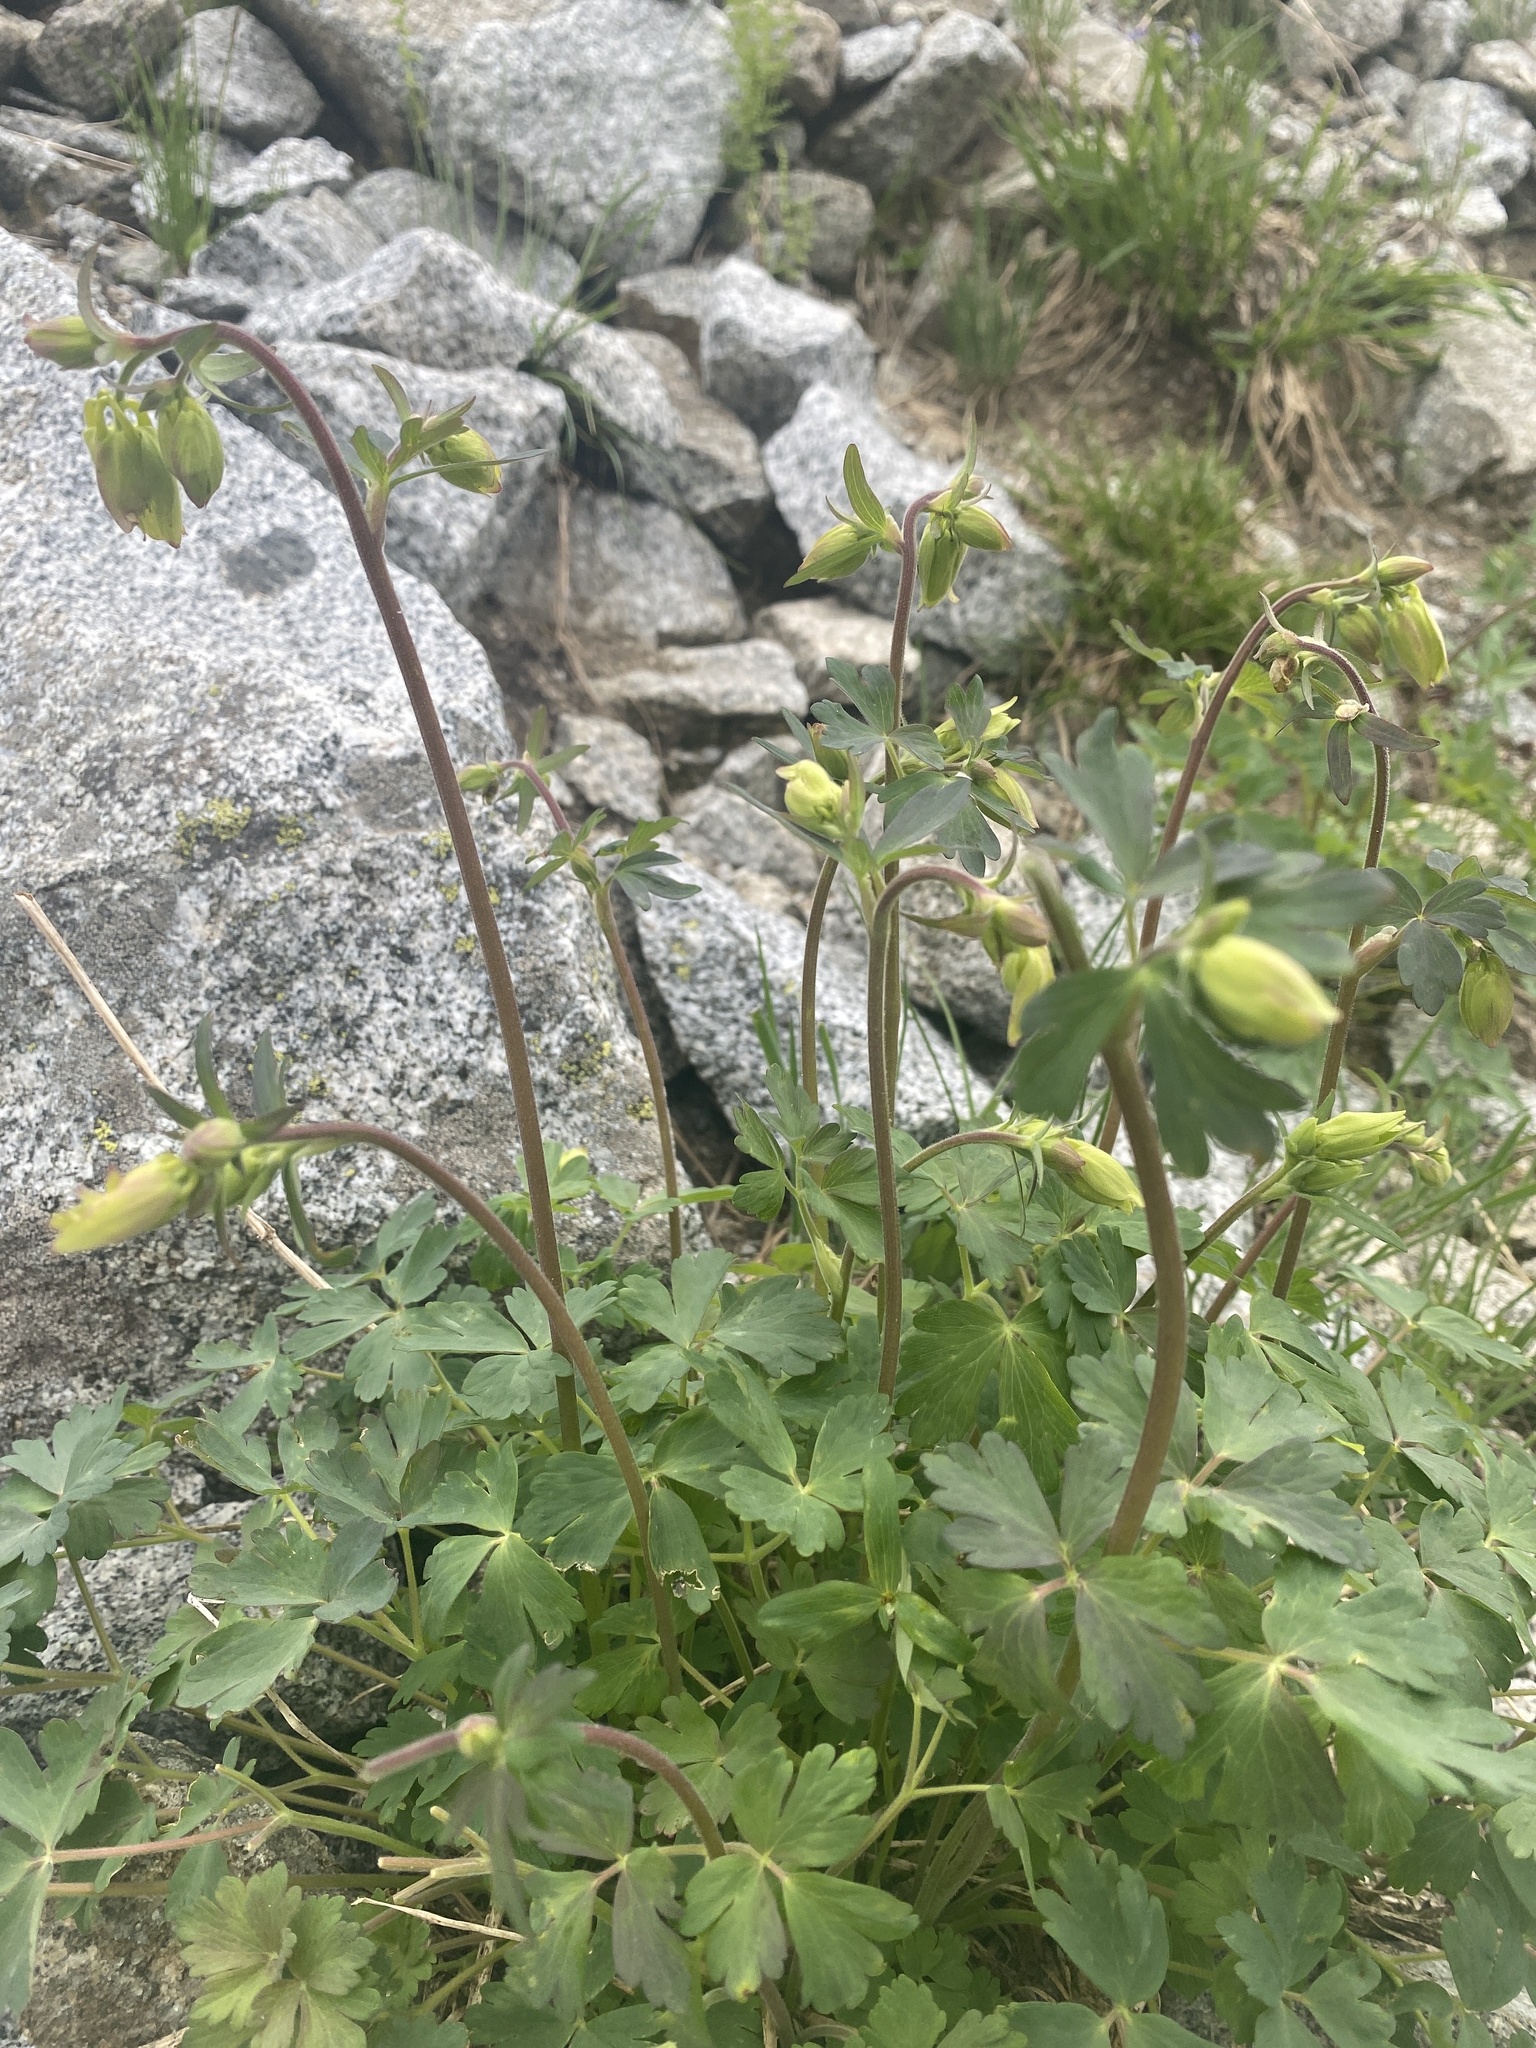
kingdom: Plantae
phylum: Tracheophyta
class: Magnoliopsida
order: Ranunculales
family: Ranunculaceae
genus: Aquilegia
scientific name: Aquilegia flavescens
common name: Yellow columbine
